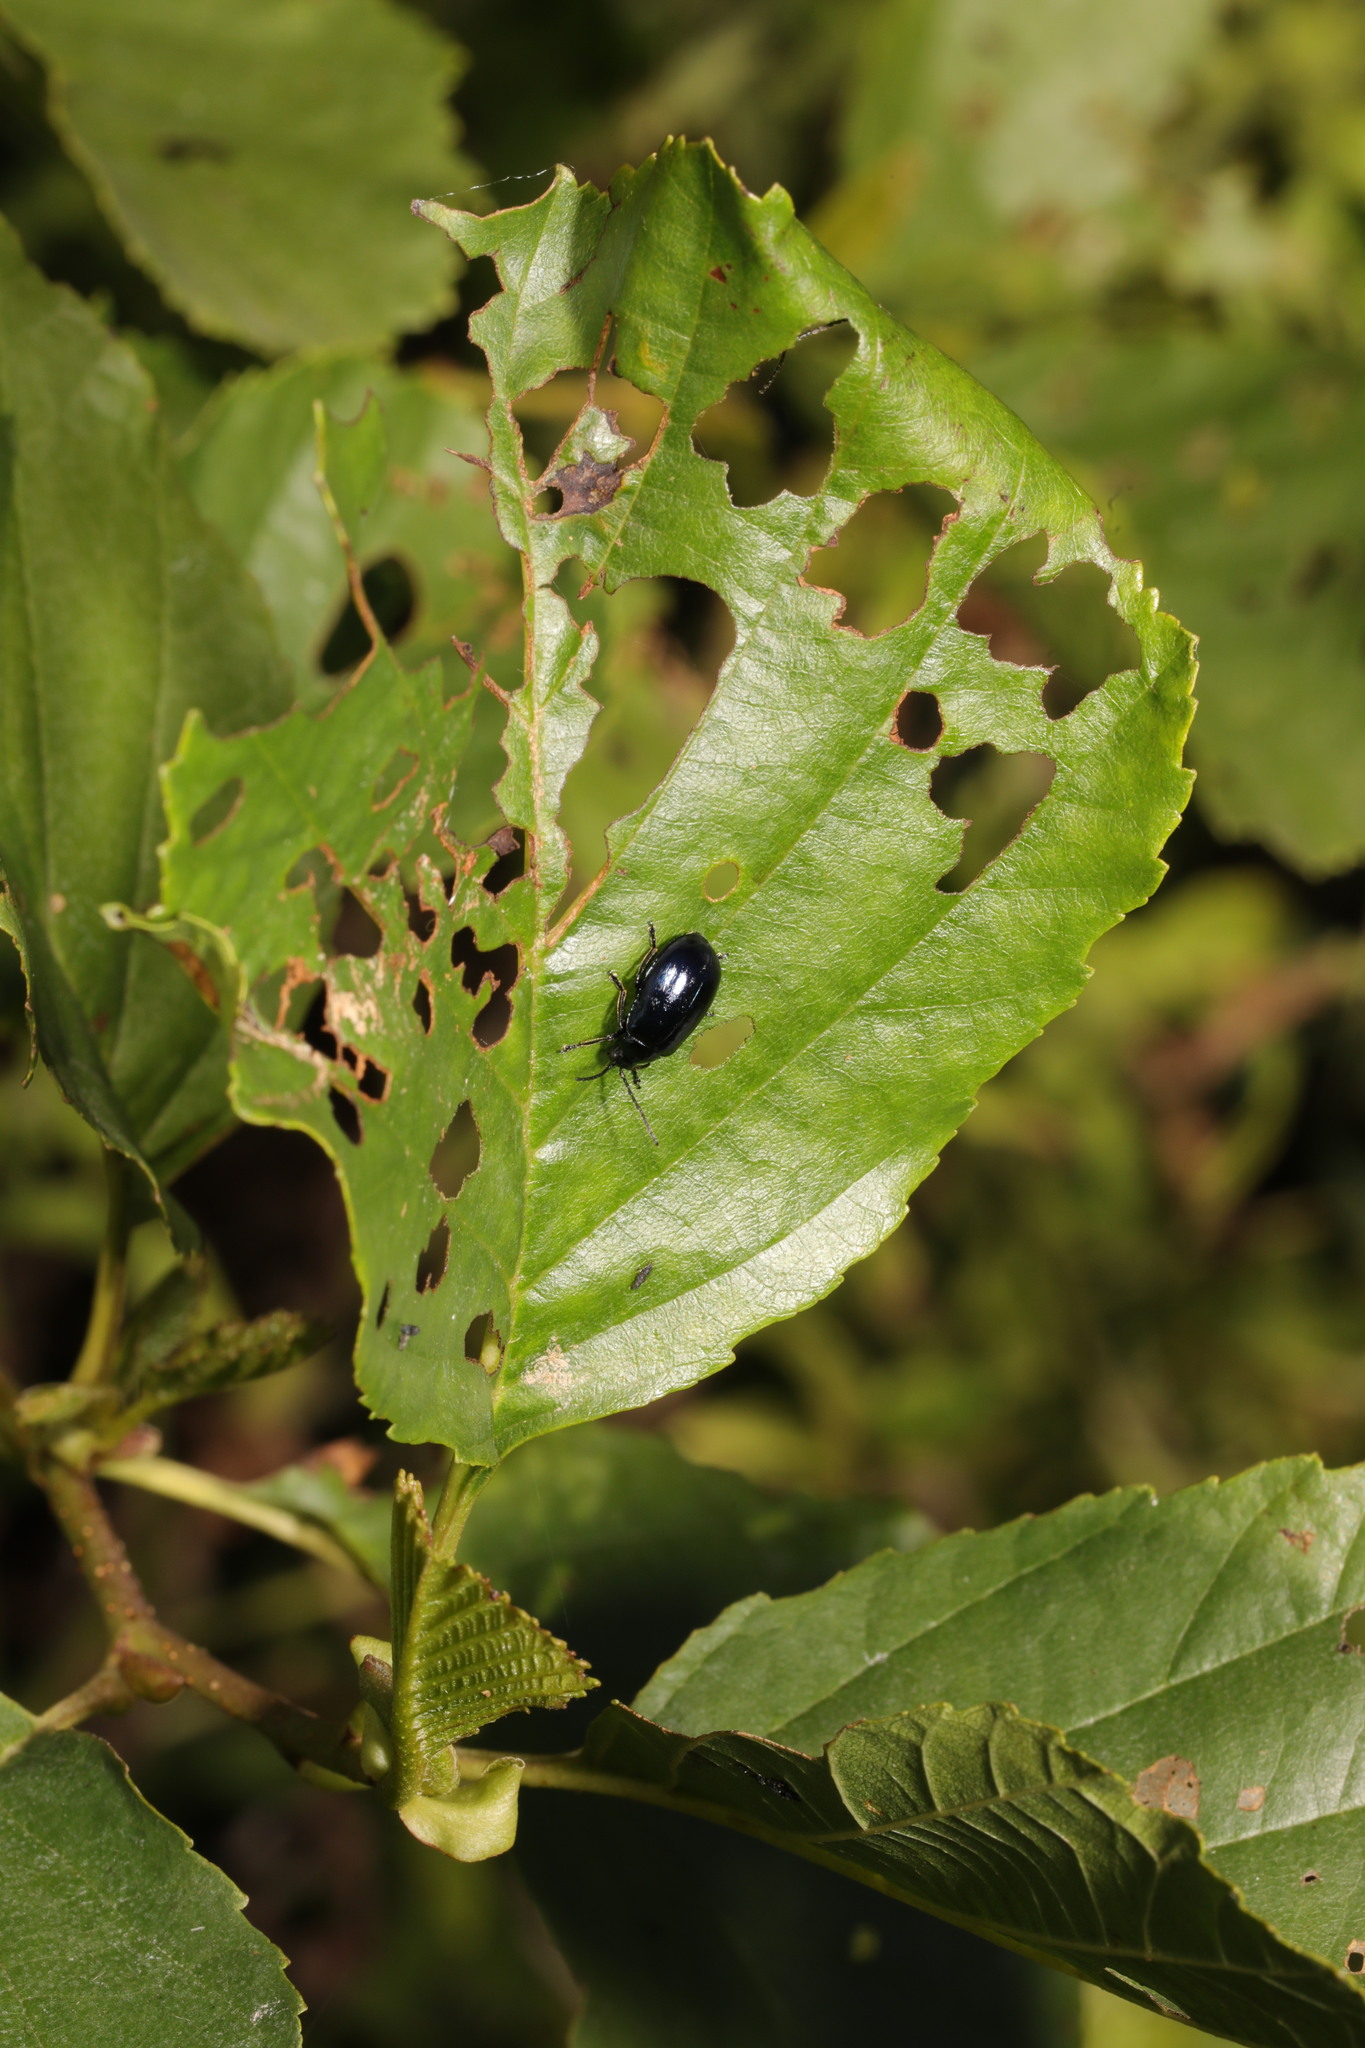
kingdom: Animalia
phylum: Arthropoda
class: Insecta
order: Coleoptera
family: Chrysomelidae
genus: Agelastica
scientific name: Agelastica alni
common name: Alder leaf beetle
